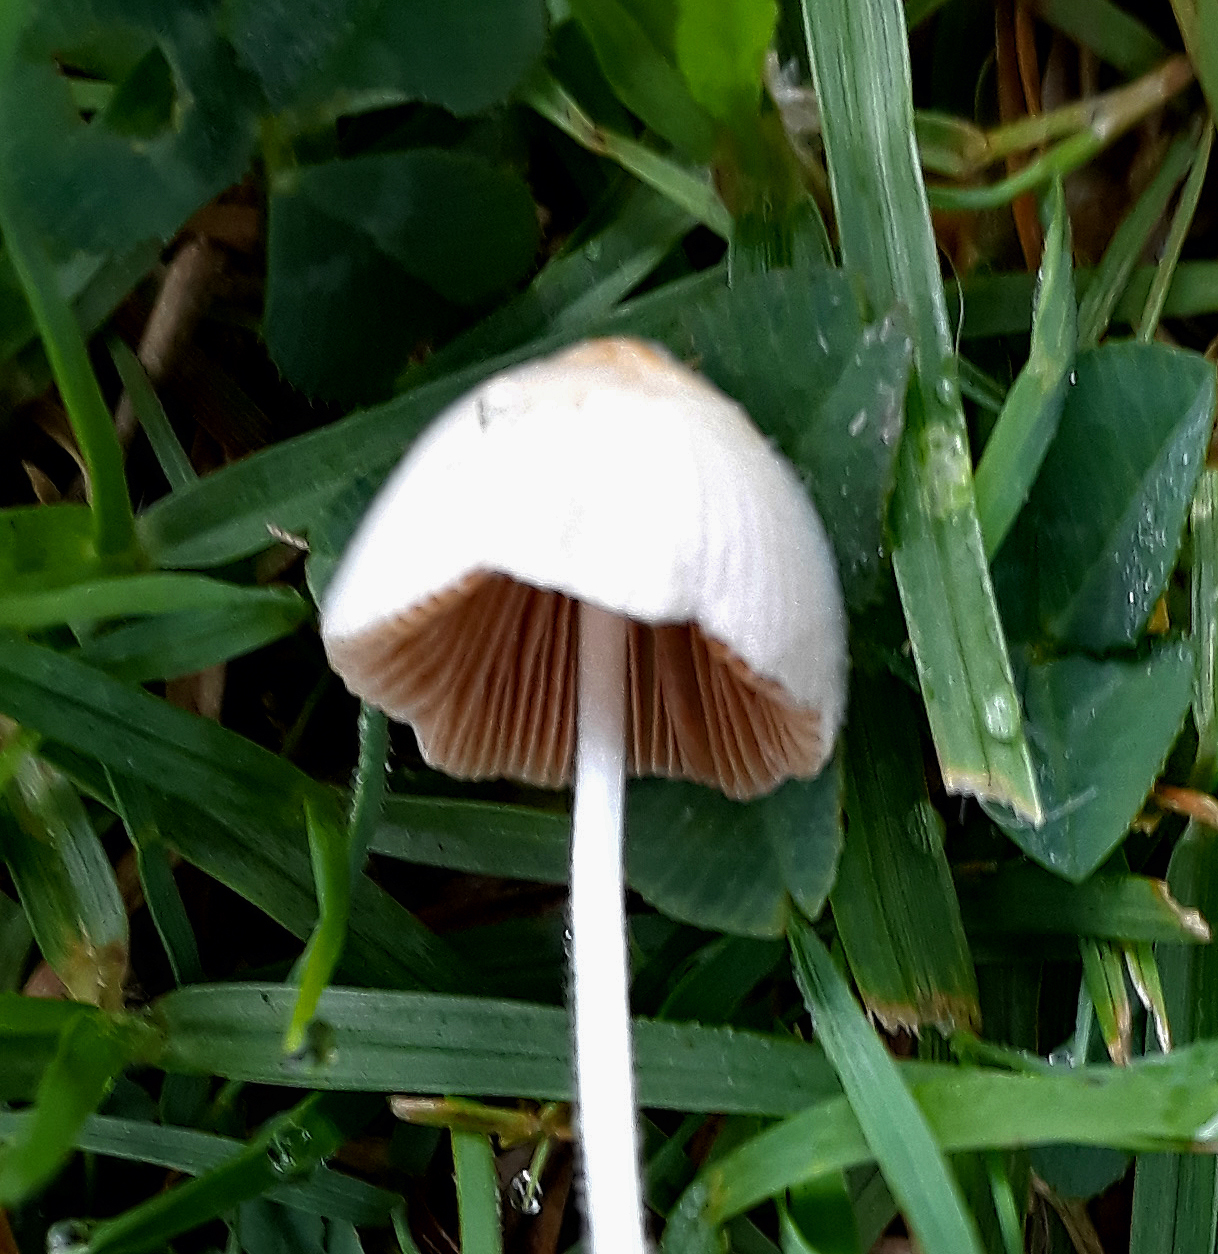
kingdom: Fungi
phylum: Basidiomycota
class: Agaricomycetes
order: Agaricales
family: Bolbitiaceae
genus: Conocybe
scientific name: Conocybe apala
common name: Milky conecap
